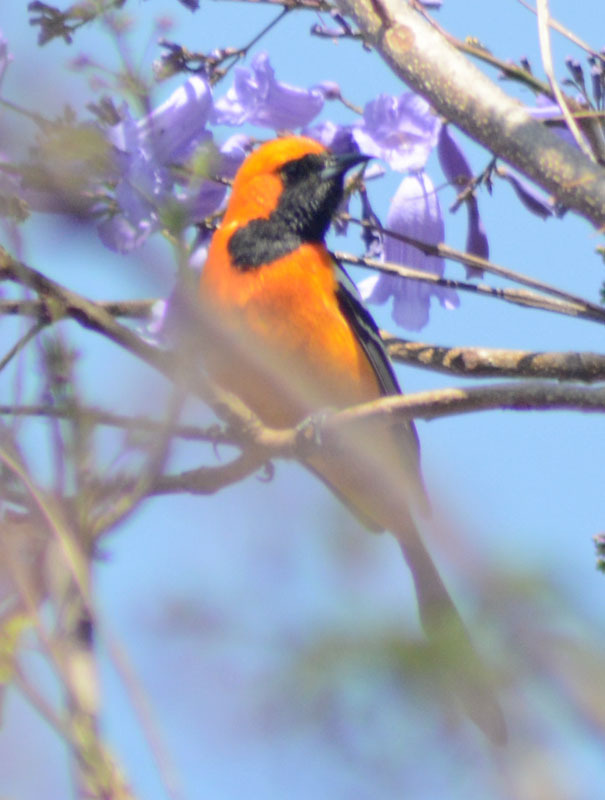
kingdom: Animalia
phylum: Chordata
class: Aves
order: Passeriformes
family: Icteridae
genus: Icterus
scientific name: Icterus cucullatus
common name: Hooded oriole
